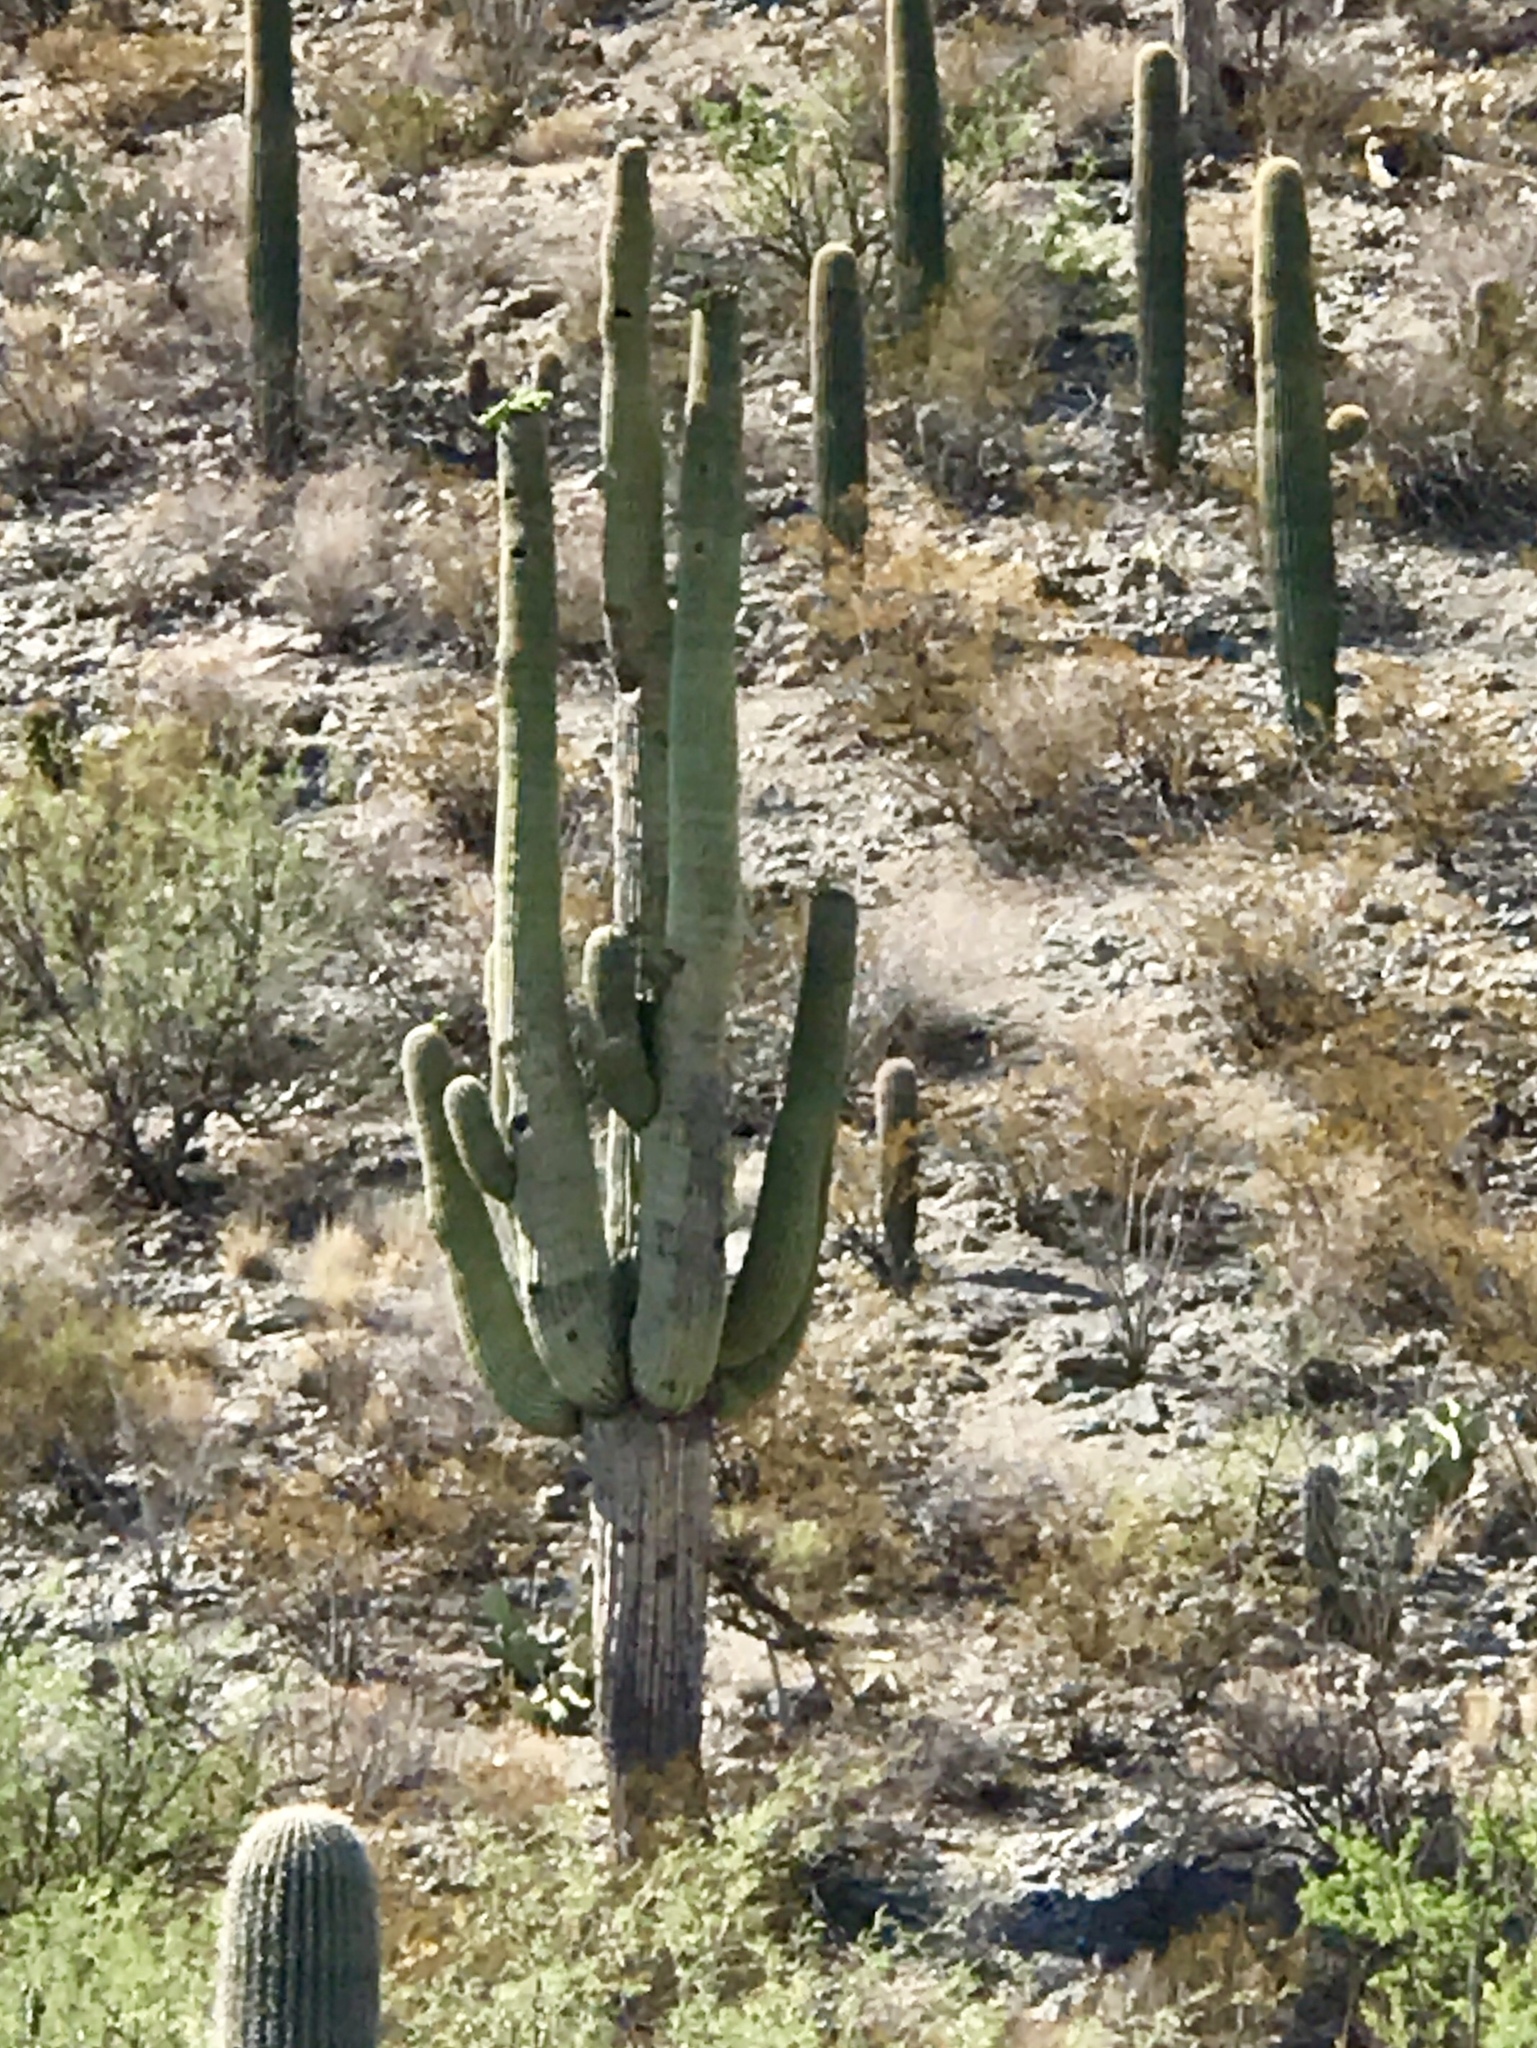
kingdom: Plantae
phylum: Tracheophyta
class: Magnoliopsida
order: Caryophyllales
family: Cactaceae
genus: Carnegiea
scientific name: Carnegiea gigantea
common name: Saguaro
